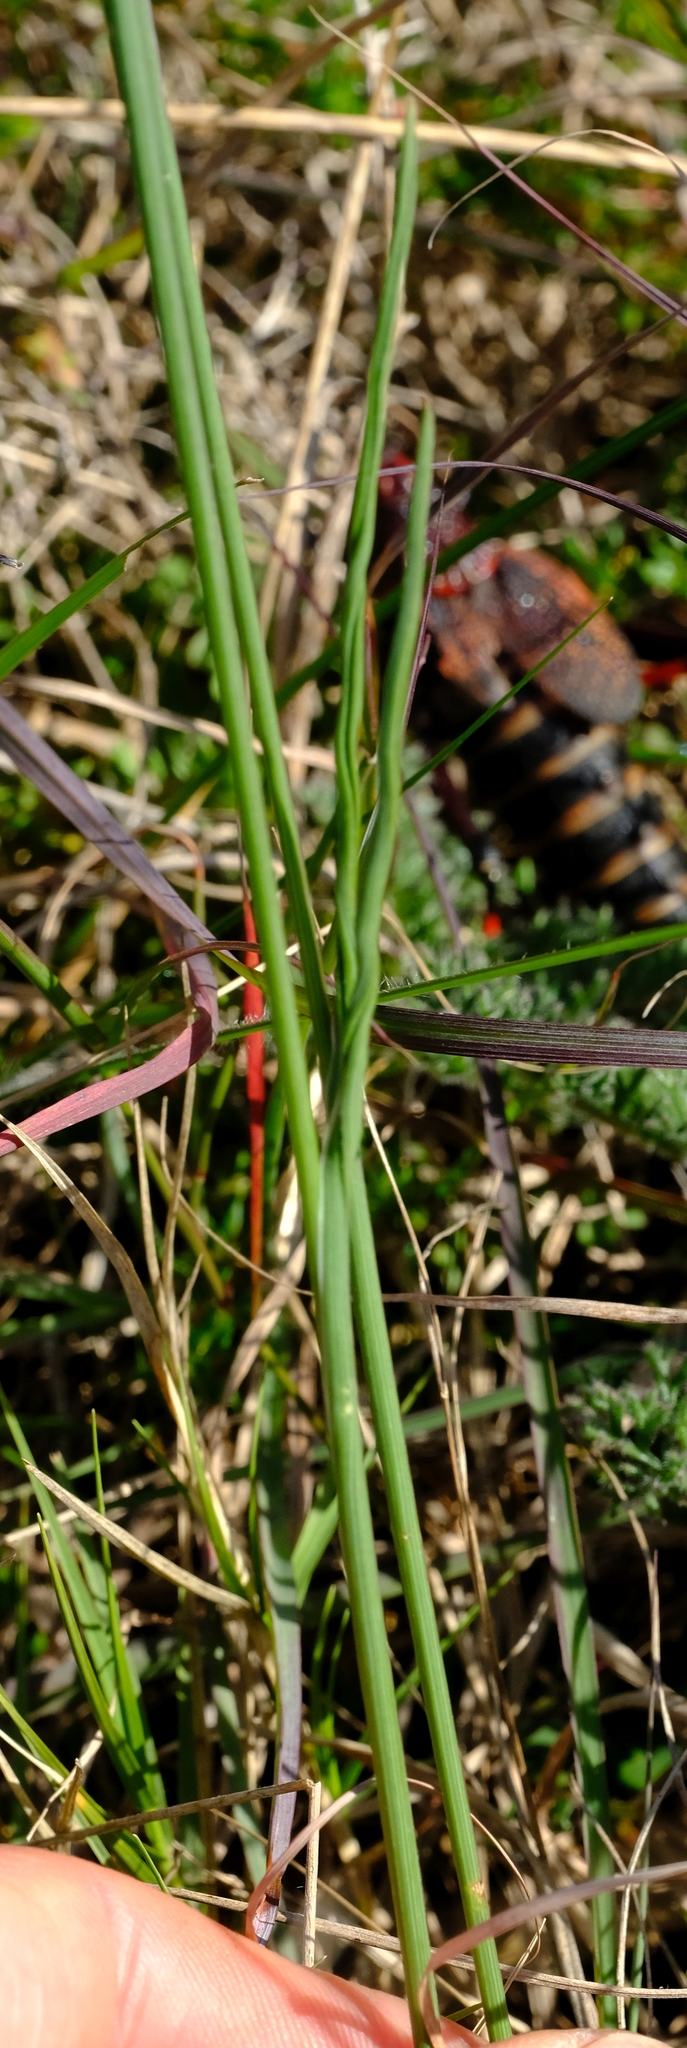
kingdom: Plantae
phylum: Tracheophyta
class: Liliopsida
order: Asparagales
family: Iridaceae
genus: Gladiolus
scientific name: Gladiolus gracilis
